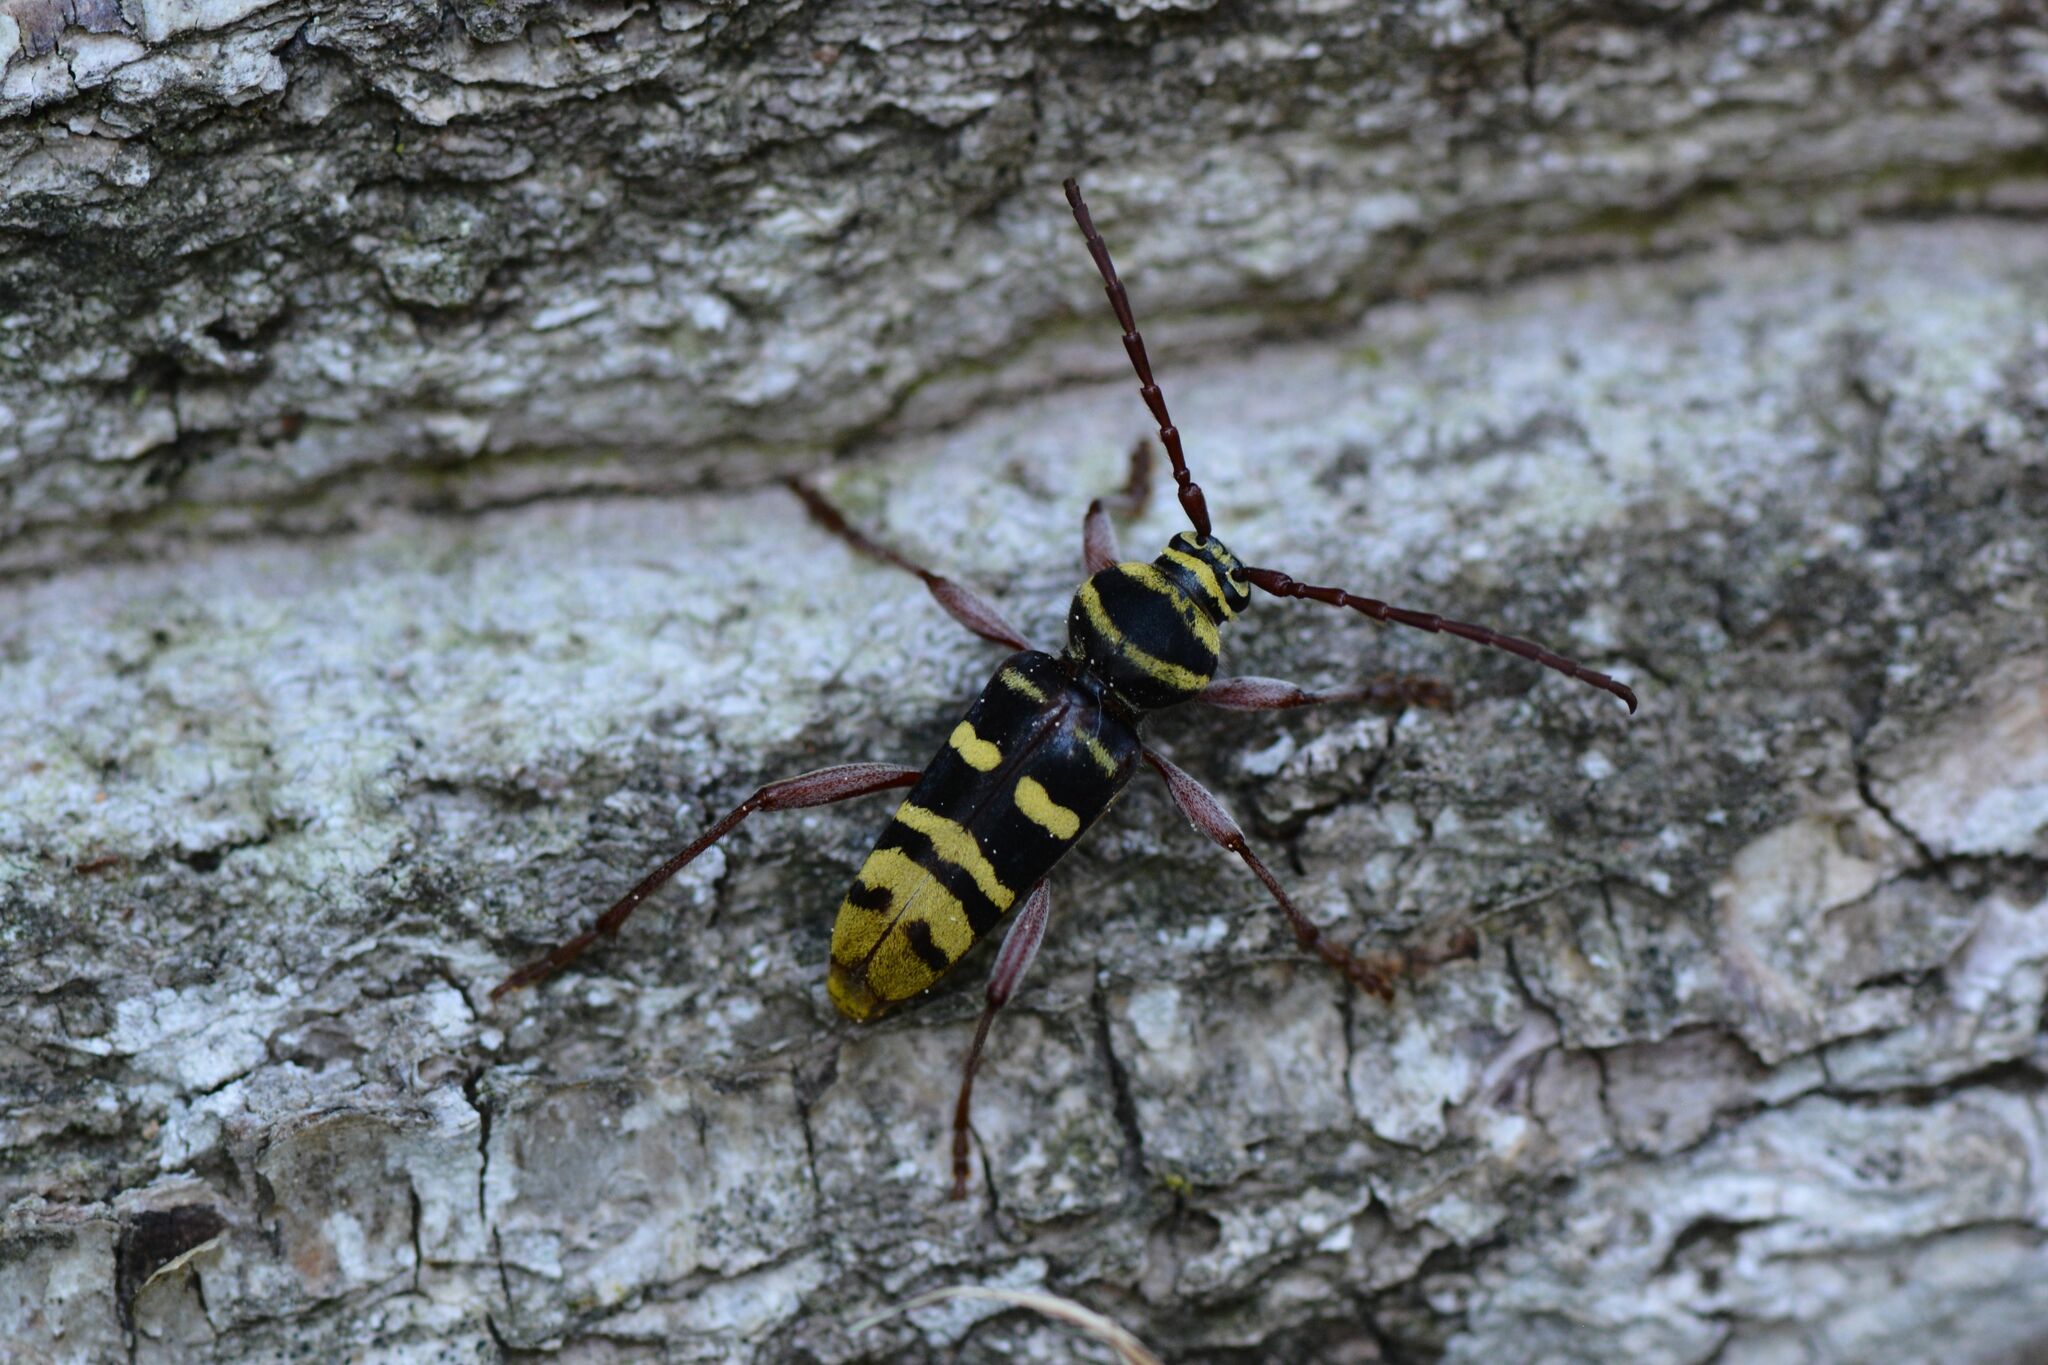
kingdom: Animalia
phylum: Arthropoda
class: Insecta
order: Coleoptera
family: Cerambycidae
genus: Plagionotus
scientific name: Plagionotus detritus
